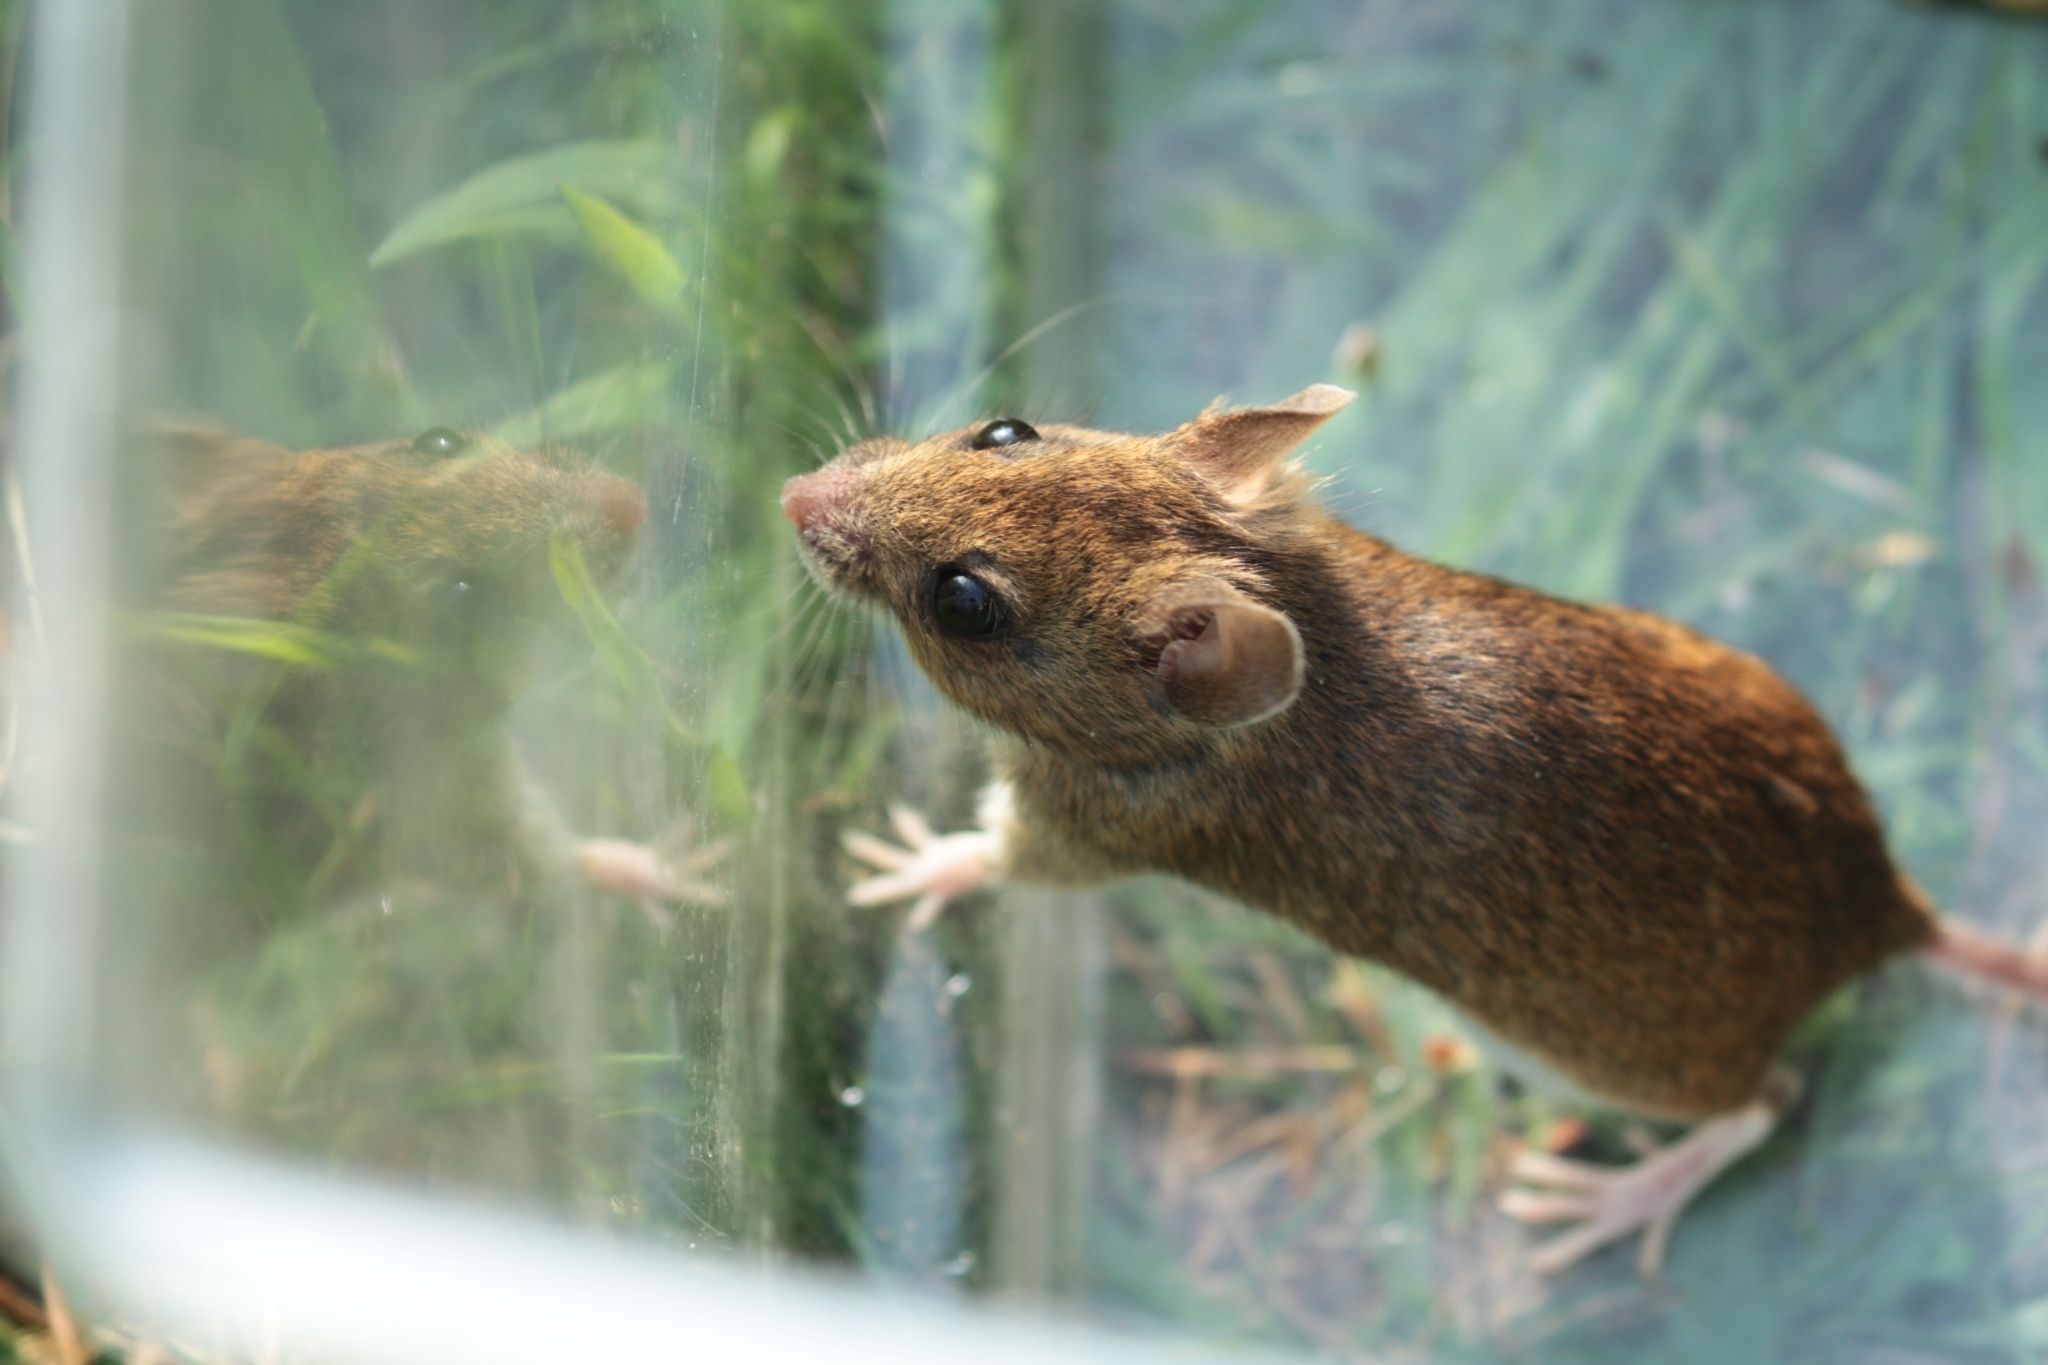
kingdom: Animalia
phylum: Chordata
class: Mammalia
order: Rodentia
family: Muridae
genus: Apodemus
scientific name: Apodemus sylvaticus
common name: Wood mouse
